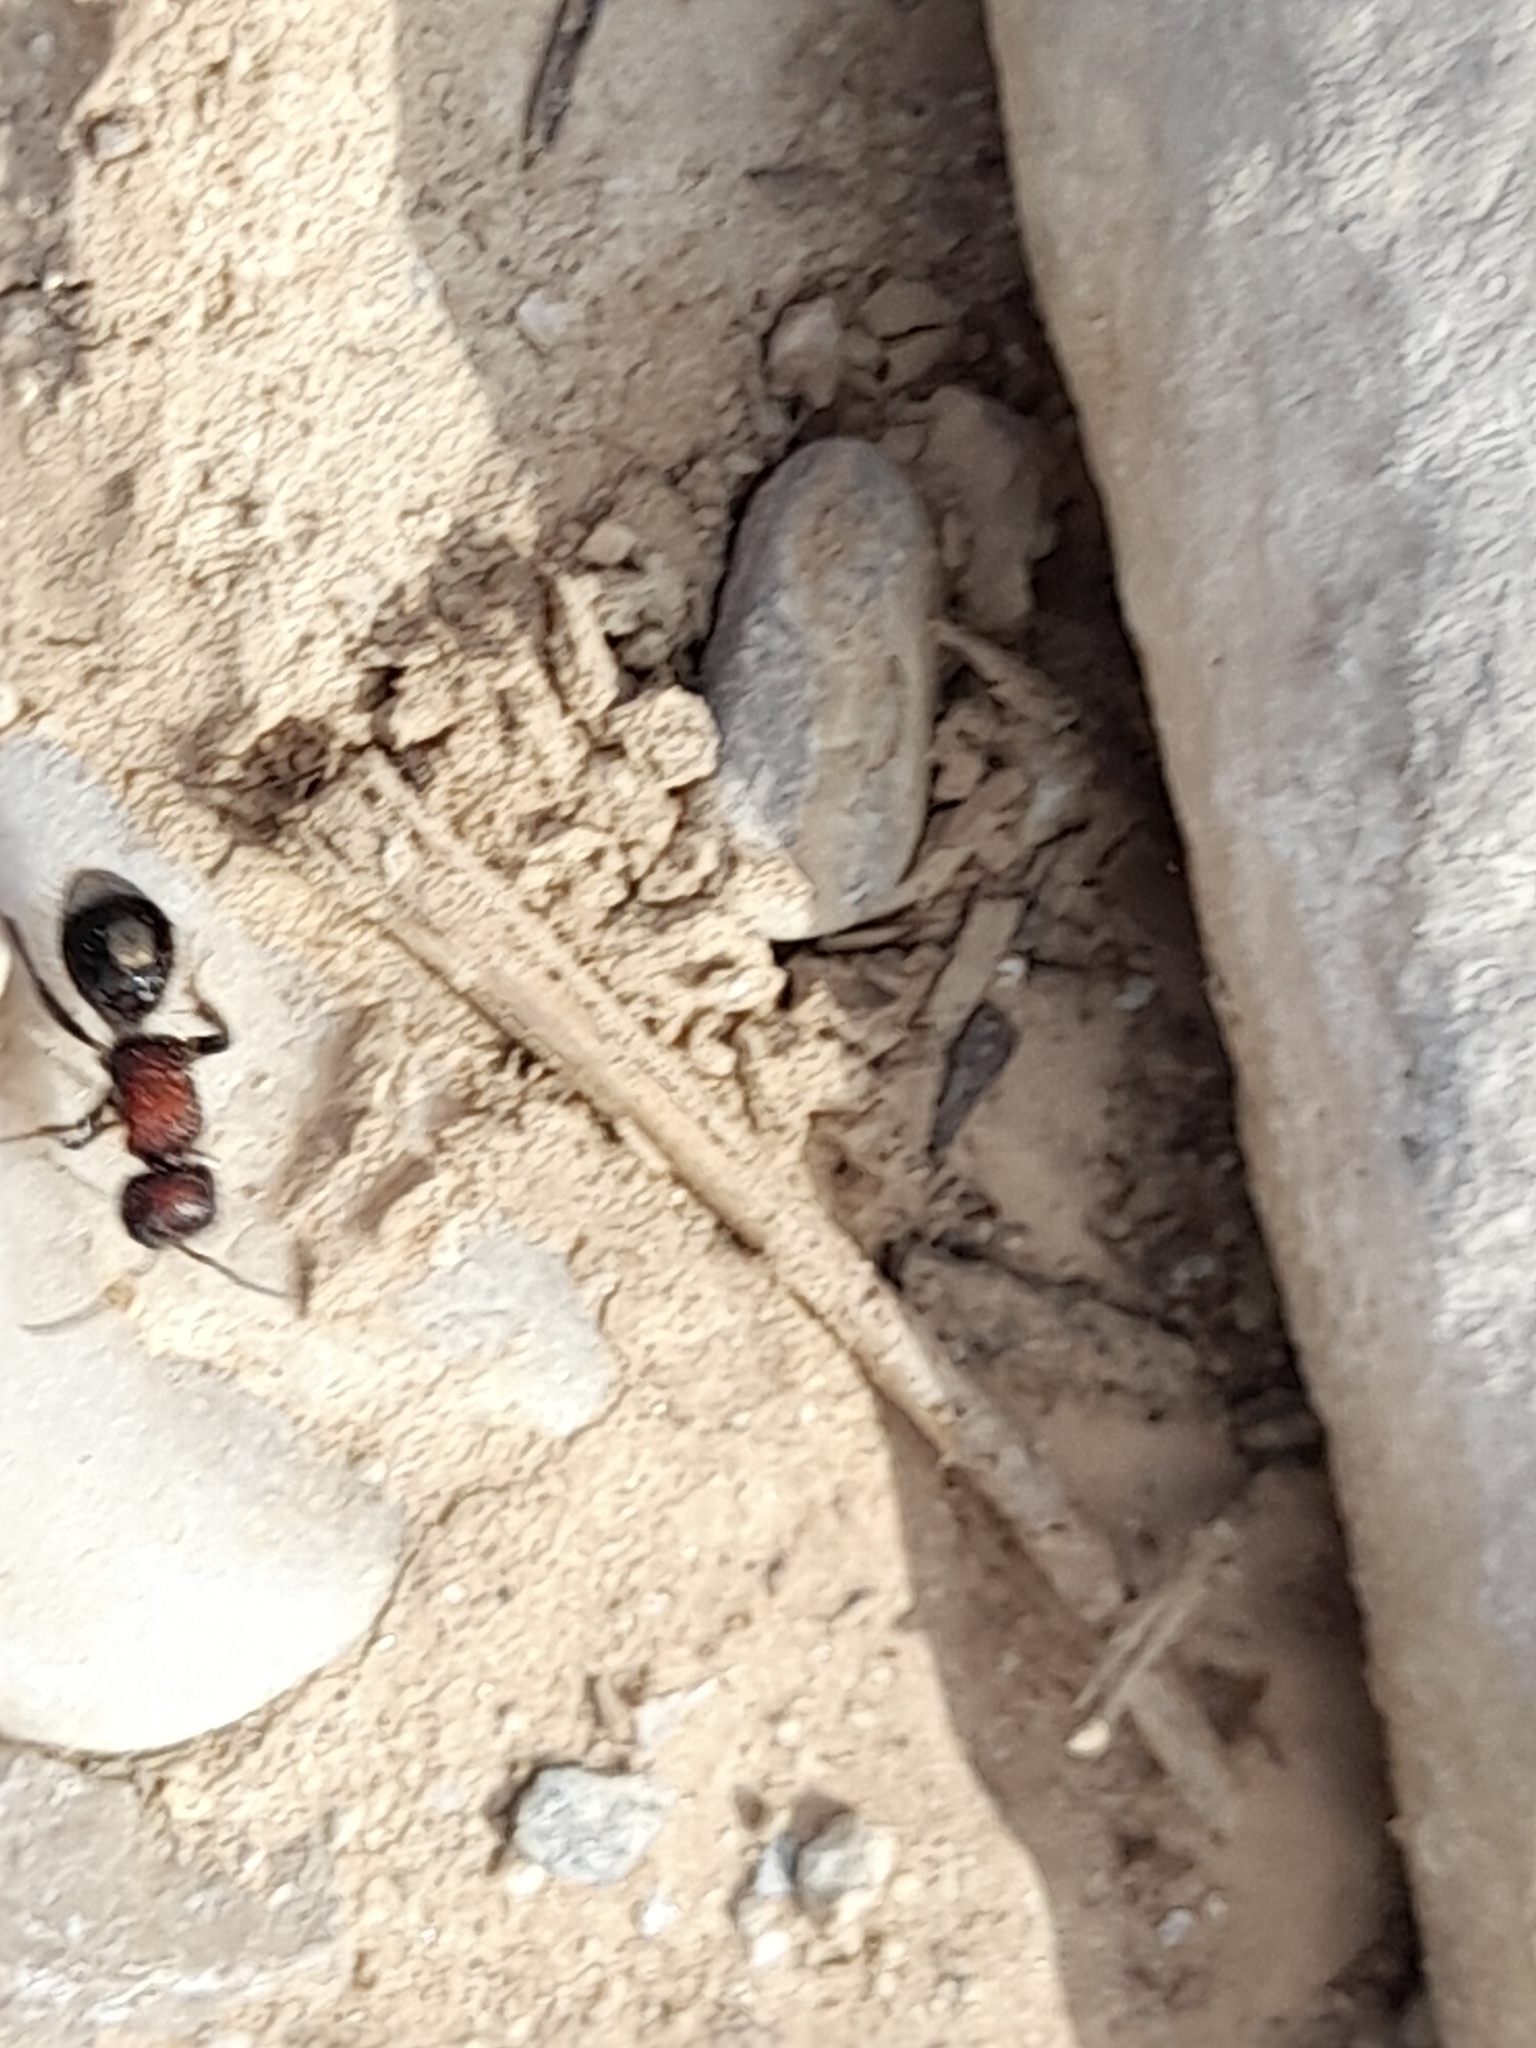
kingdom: Animalia
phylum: Arthropoda
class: Insecta
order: Hymenoptera
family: Mutillidae
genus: Sigilla
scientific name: Sigilla dorsata
